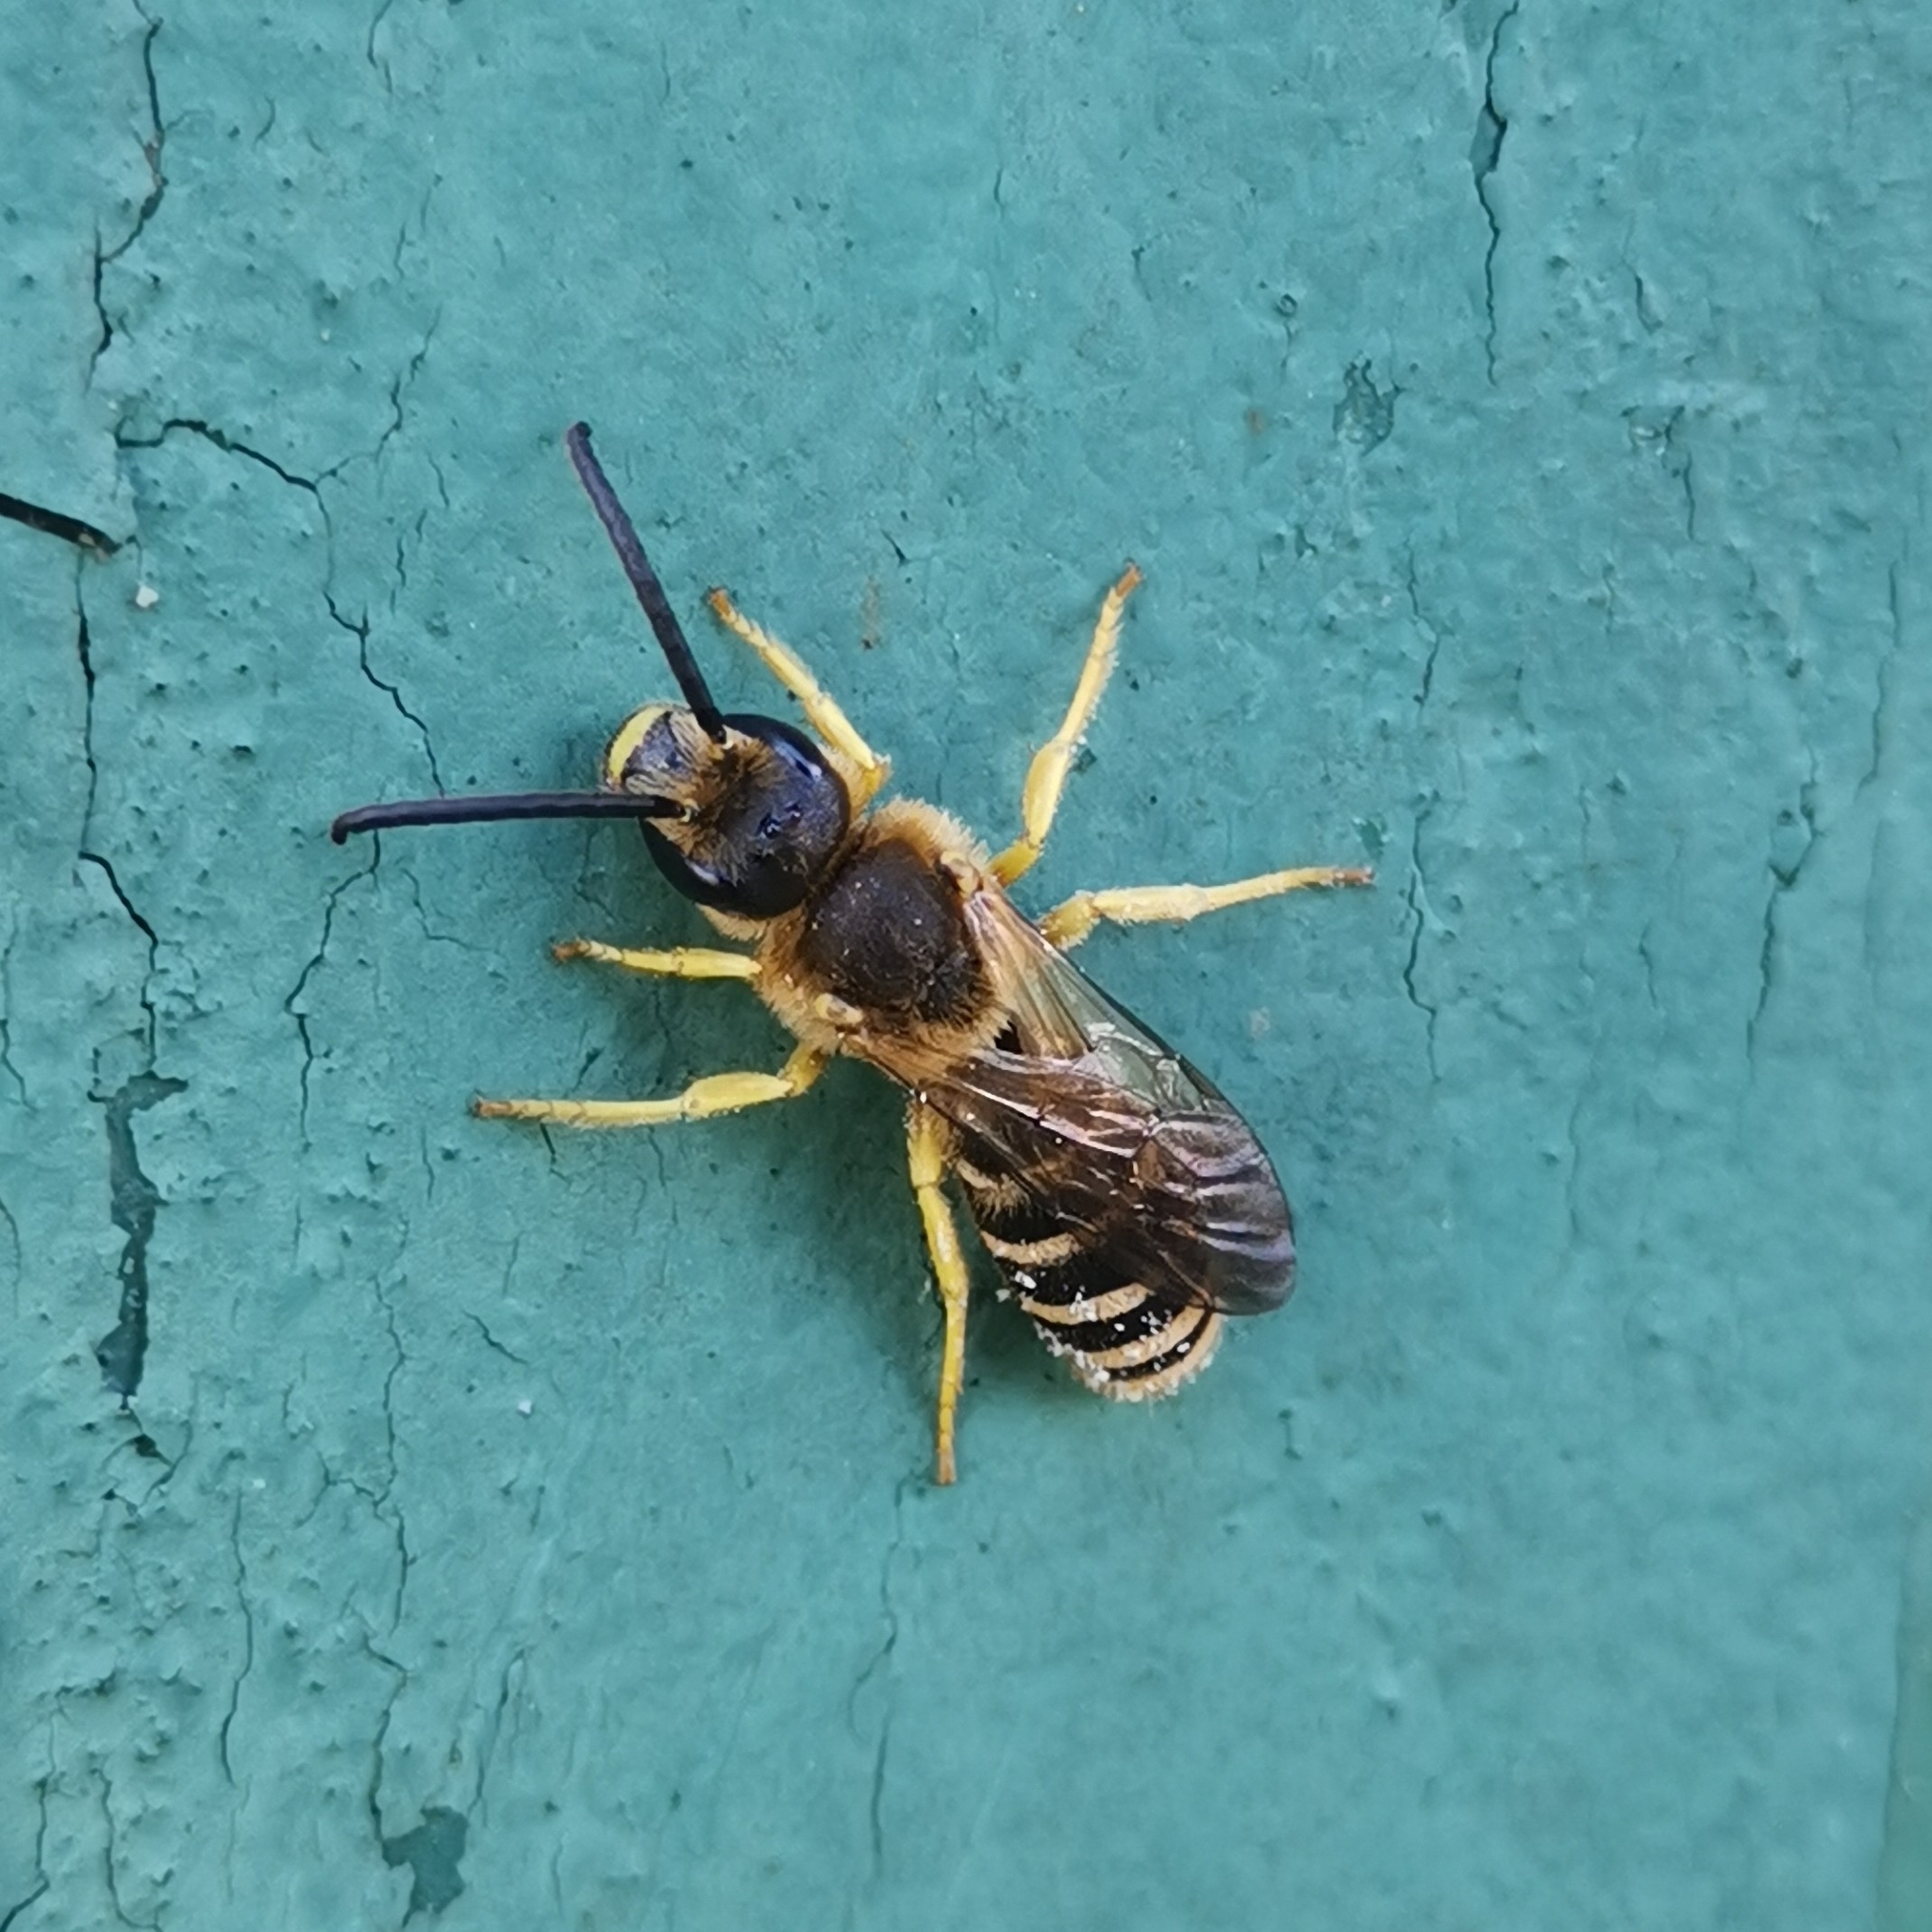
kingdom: Animalia
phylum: Arthropoda
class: Insecta
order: Hymenoptera
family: Halictidae
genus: Halictus
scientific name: Halictus scabiosae
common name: Great banded furrow bee
